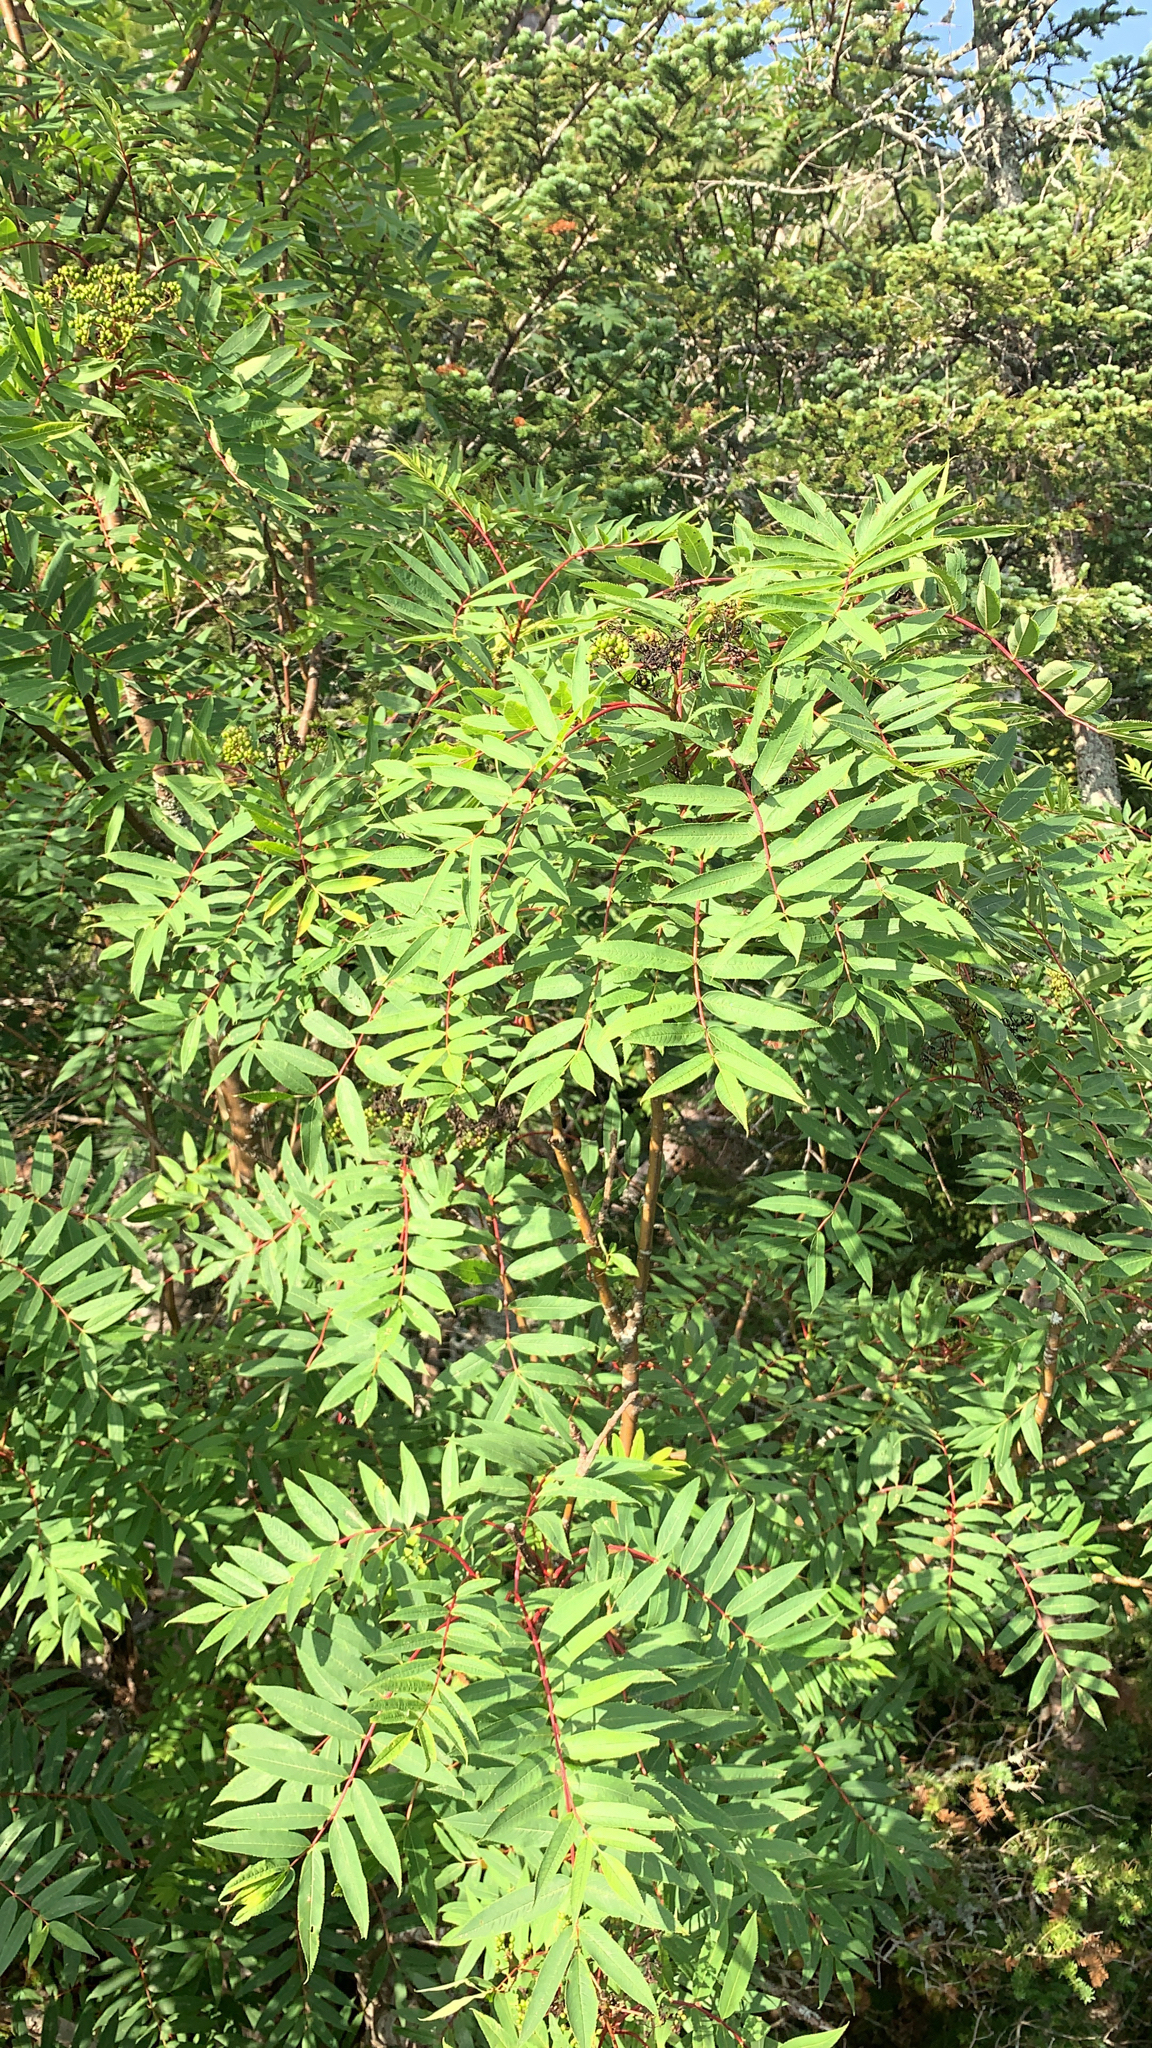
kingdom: Plantae
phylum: Tracheophyta
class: Magnoliopsida
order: Rosales
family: Rosaceae
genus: Sorbus
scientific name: Sorbus americana
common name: American mountain-ash
